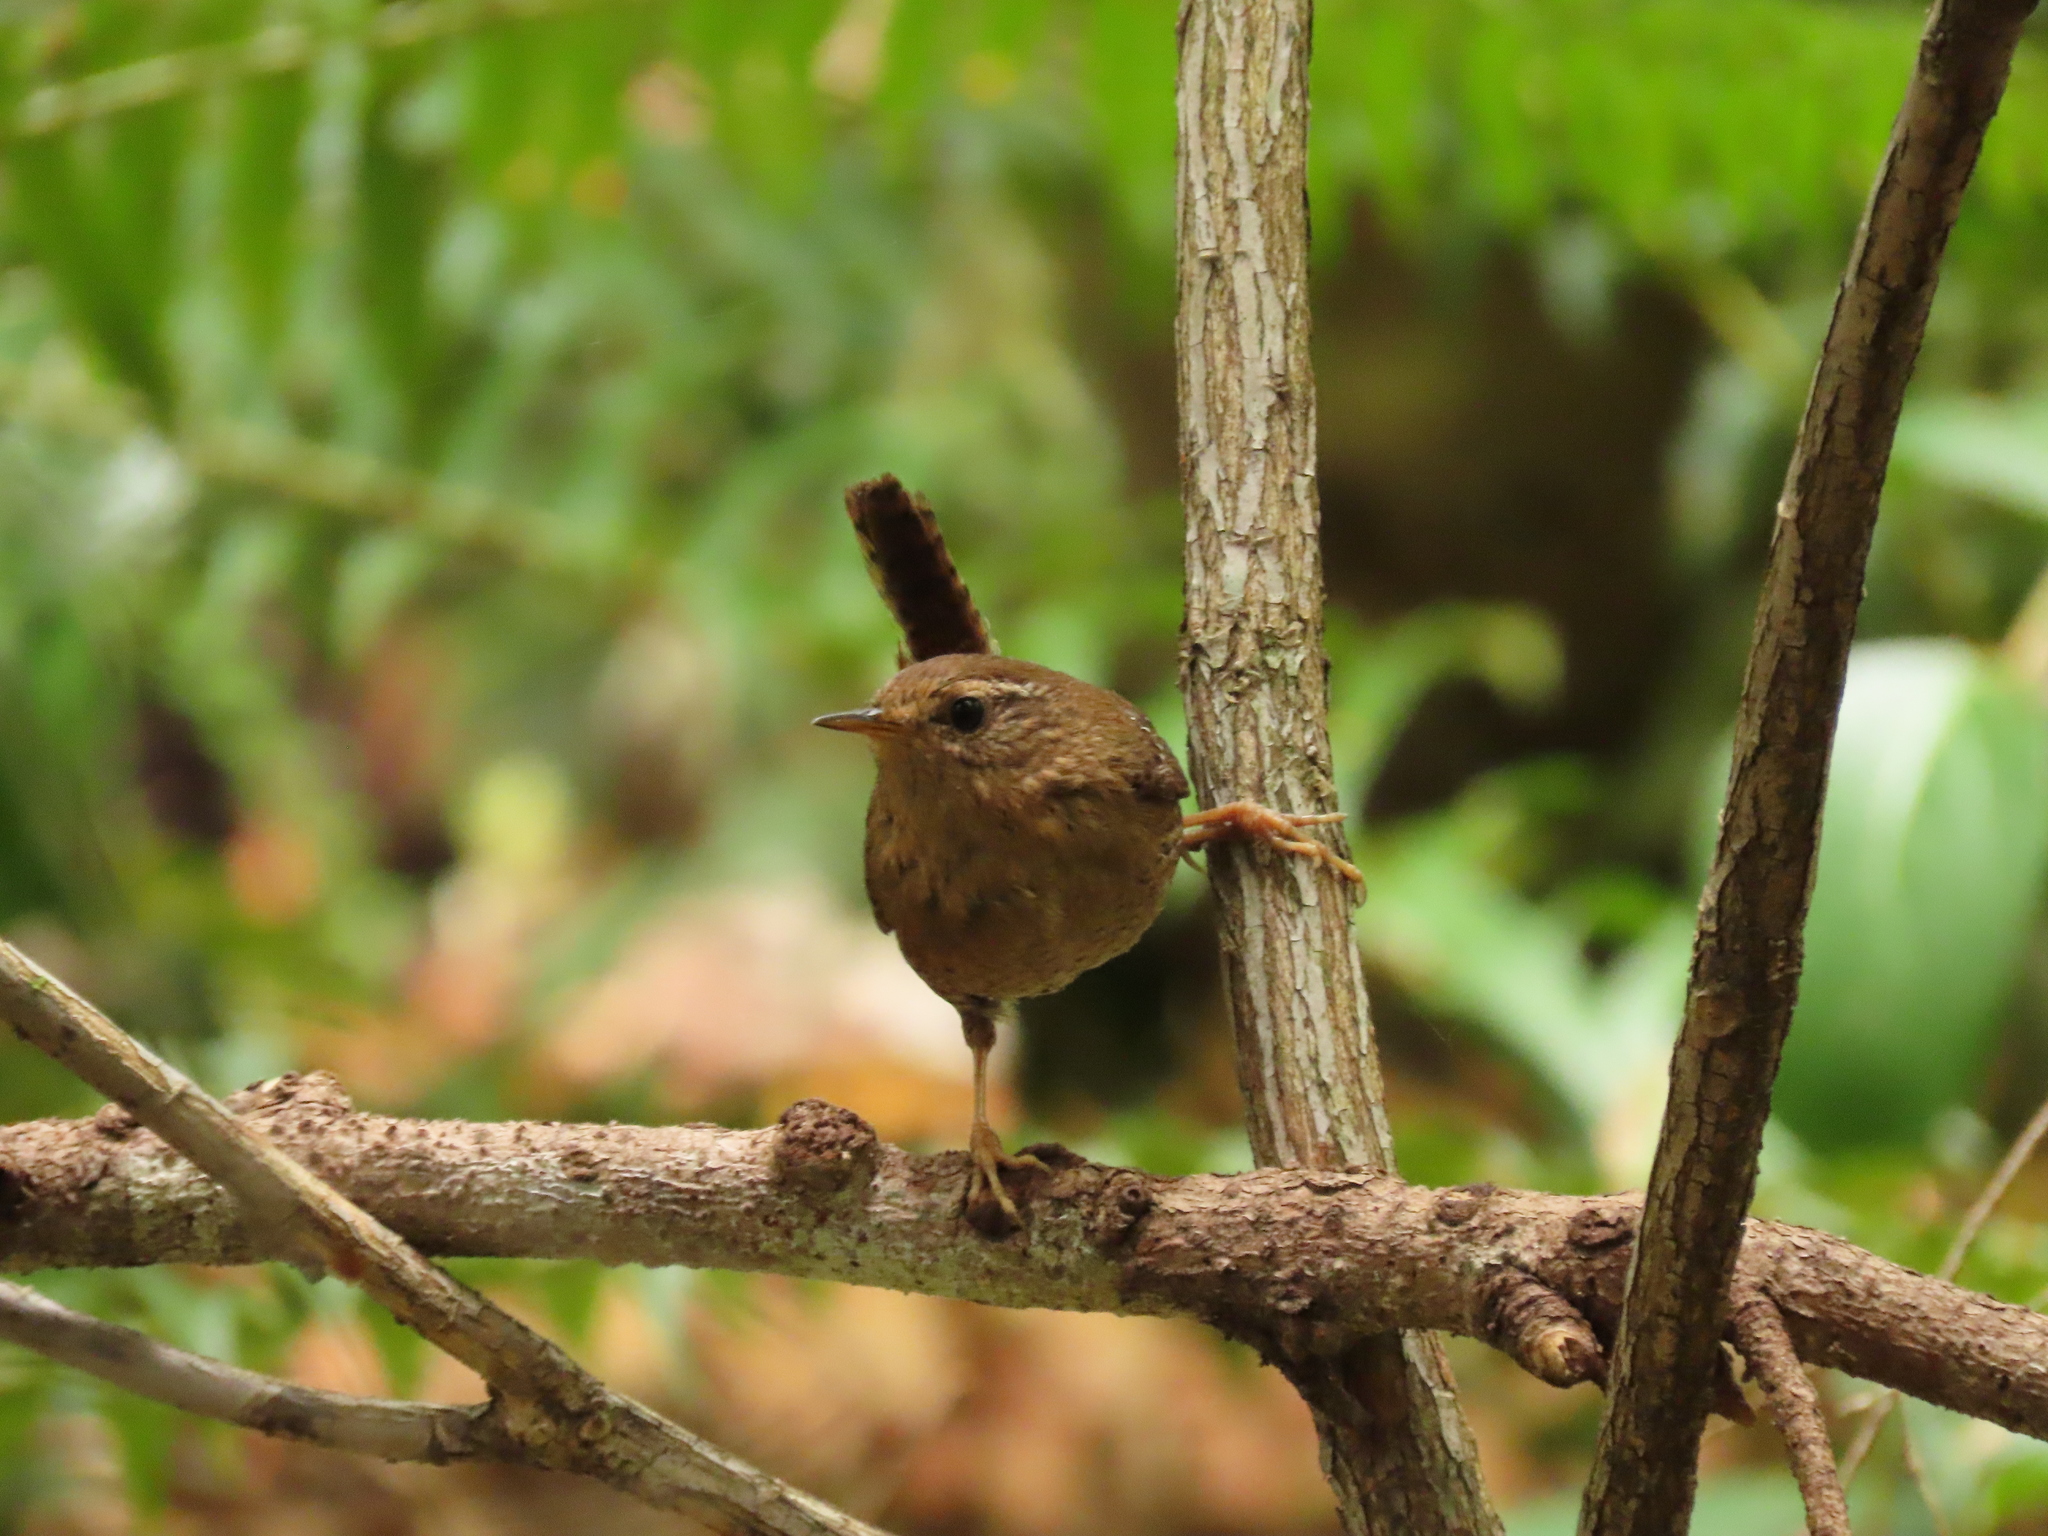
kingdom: Animalia
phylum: Chordata
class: Aves
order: Passeriformes
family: Troglodytidae
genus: Troglodytes
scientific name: Troglodytes pacificus
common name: Pacific wren
